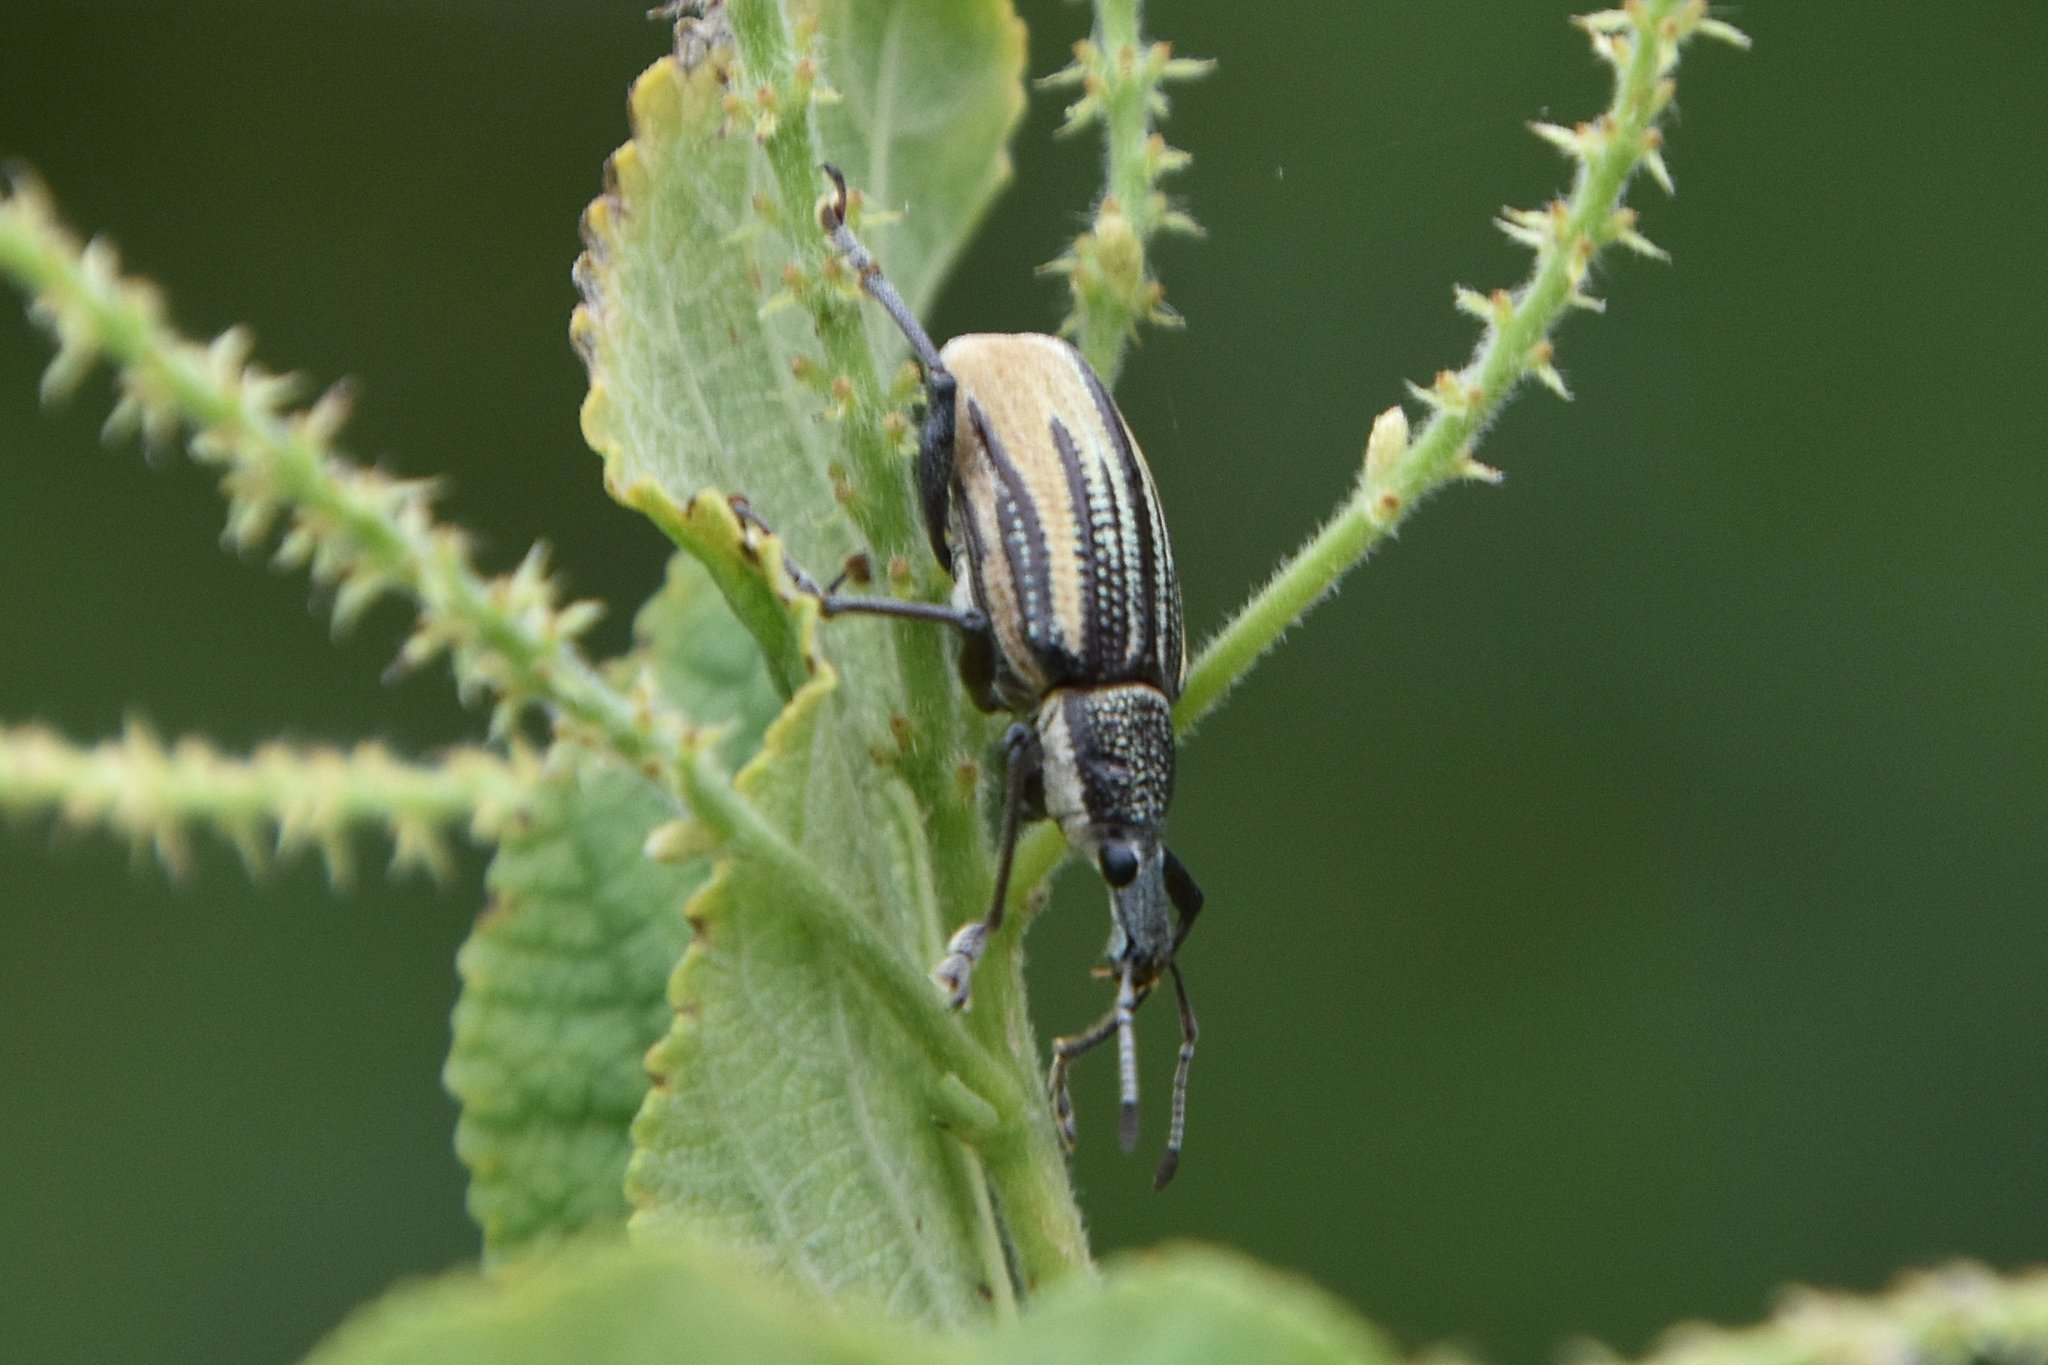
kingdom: Animalia
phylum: Arthropoda
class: Insecta
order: Coleoptera
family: Curculionidae
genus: Diaprepes
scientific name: Diaprepes abbreviatus
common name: Root weevil
